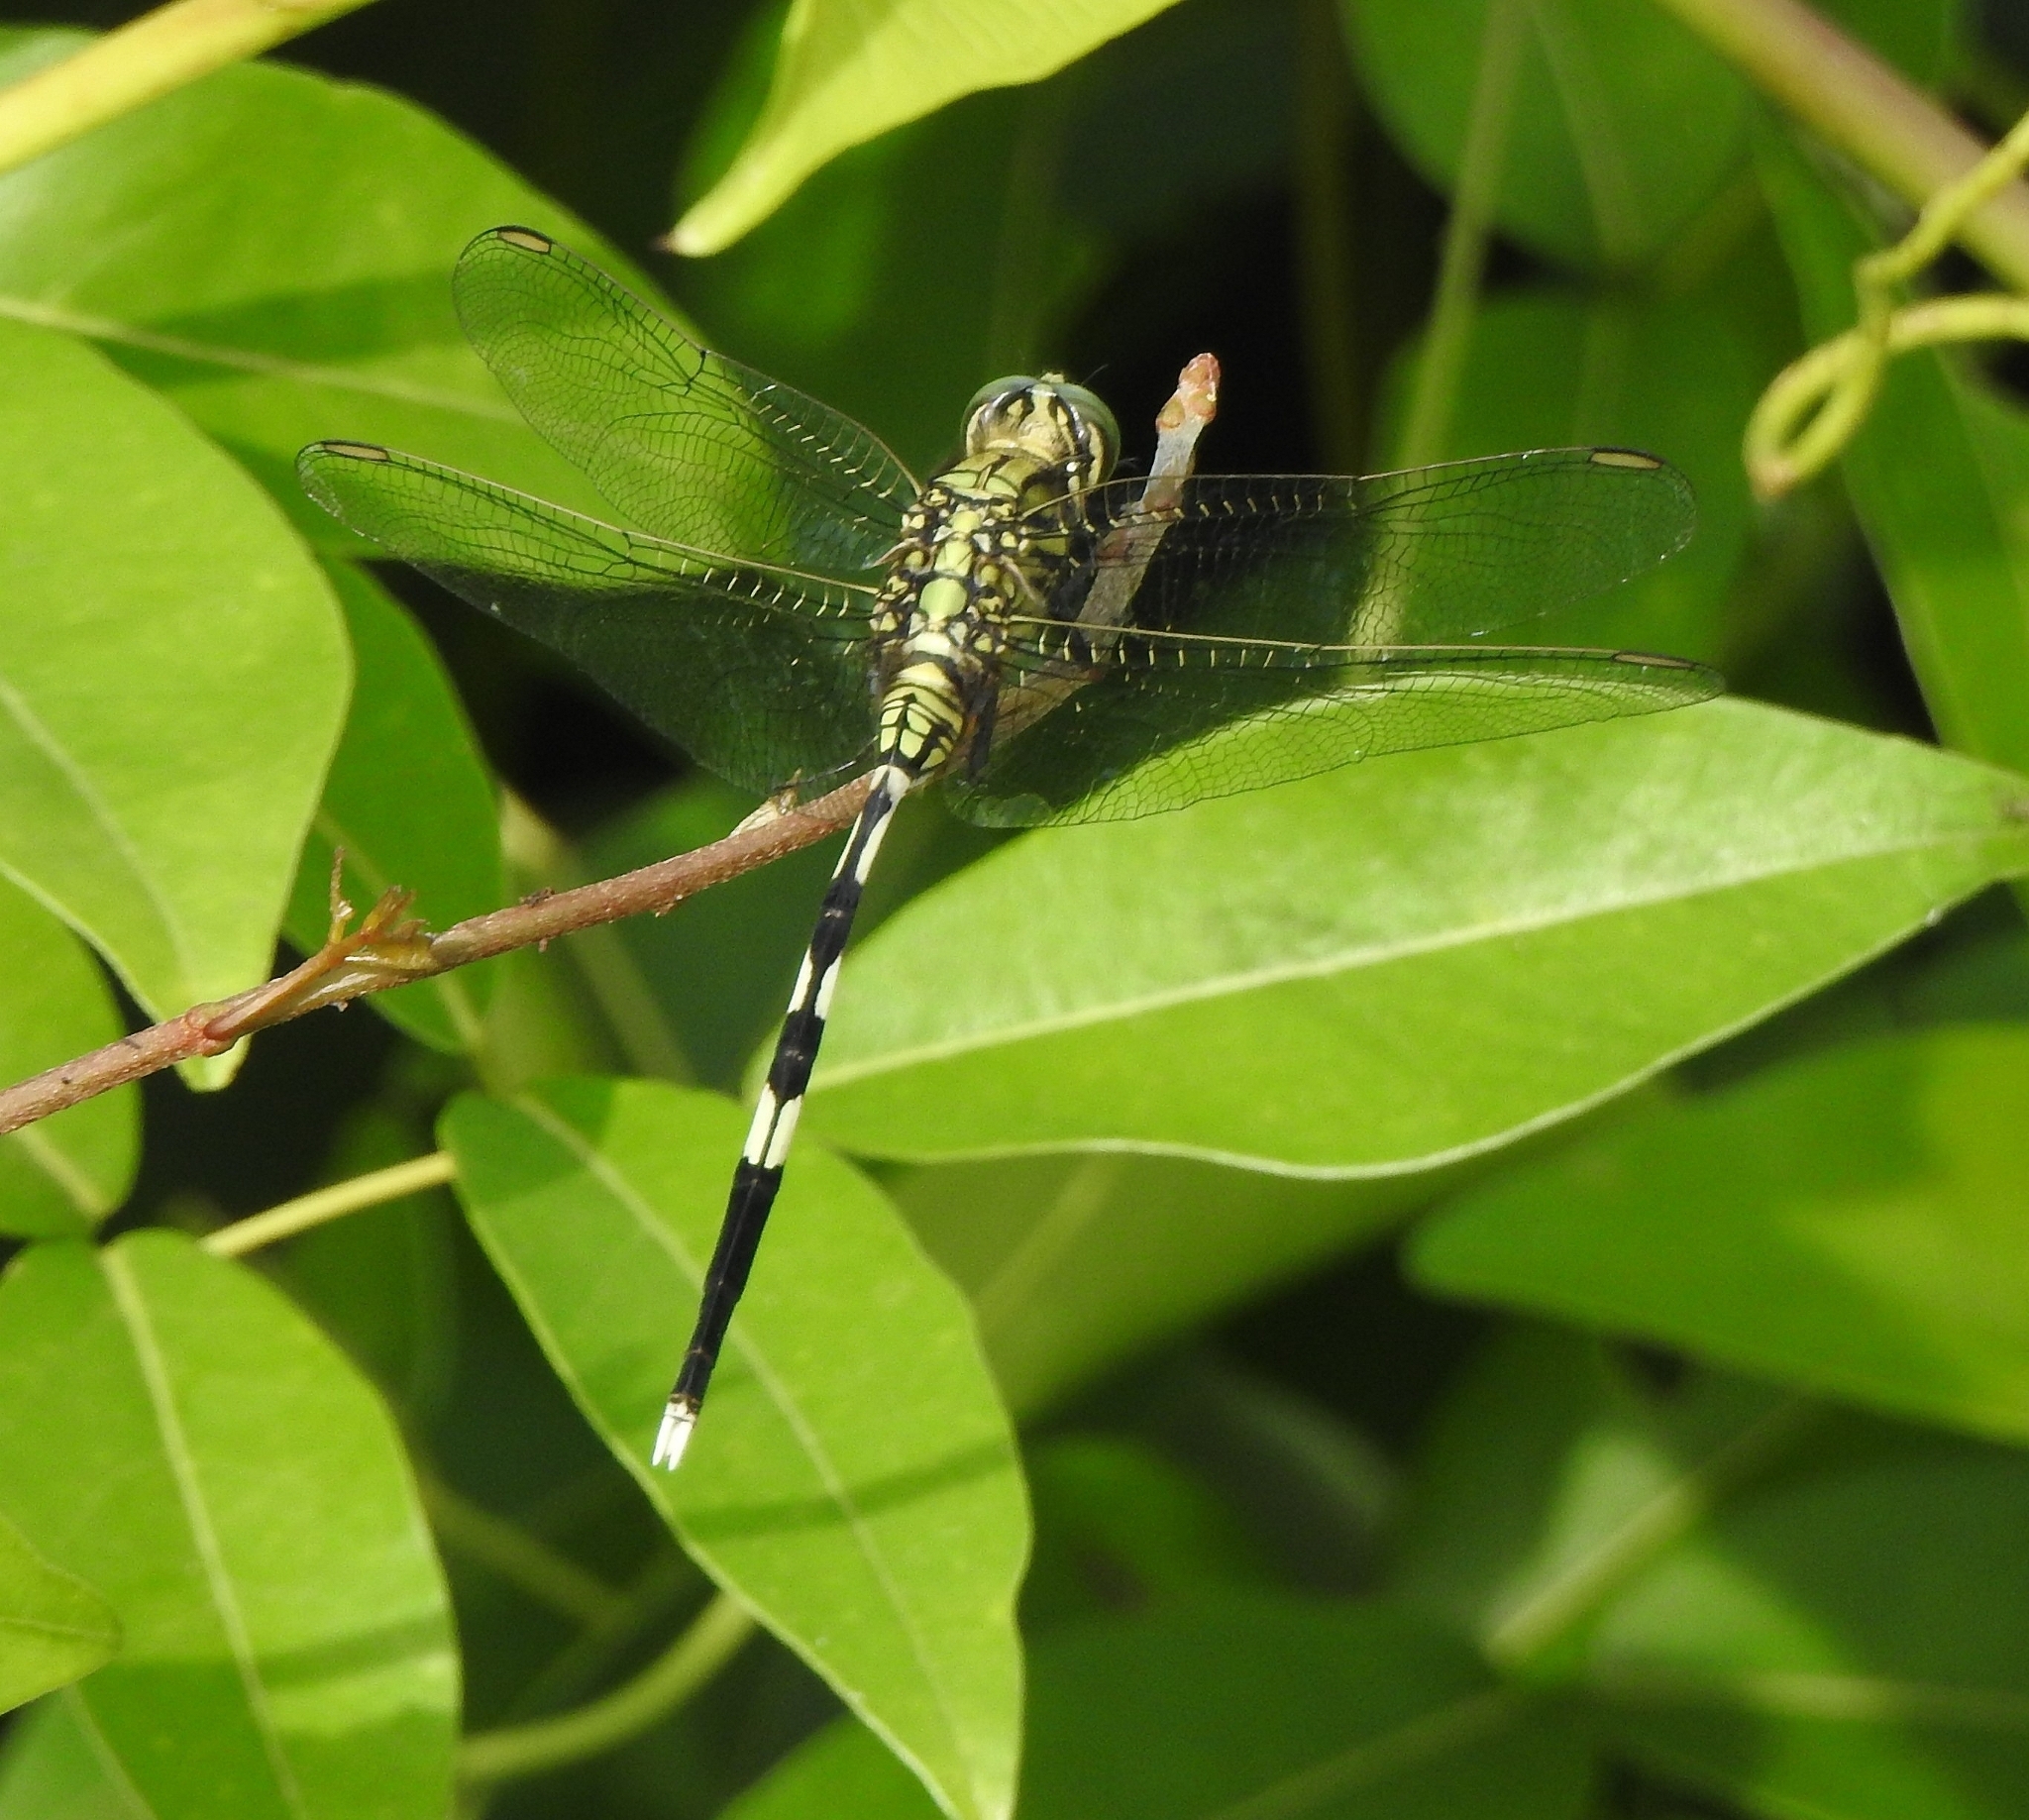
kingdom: Animalia
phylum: Arthropoda
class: Insecta
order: Odonata
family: Libellulidae
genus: Orthetrum
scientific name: Orthetrum sabina
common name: Slender skimmer
